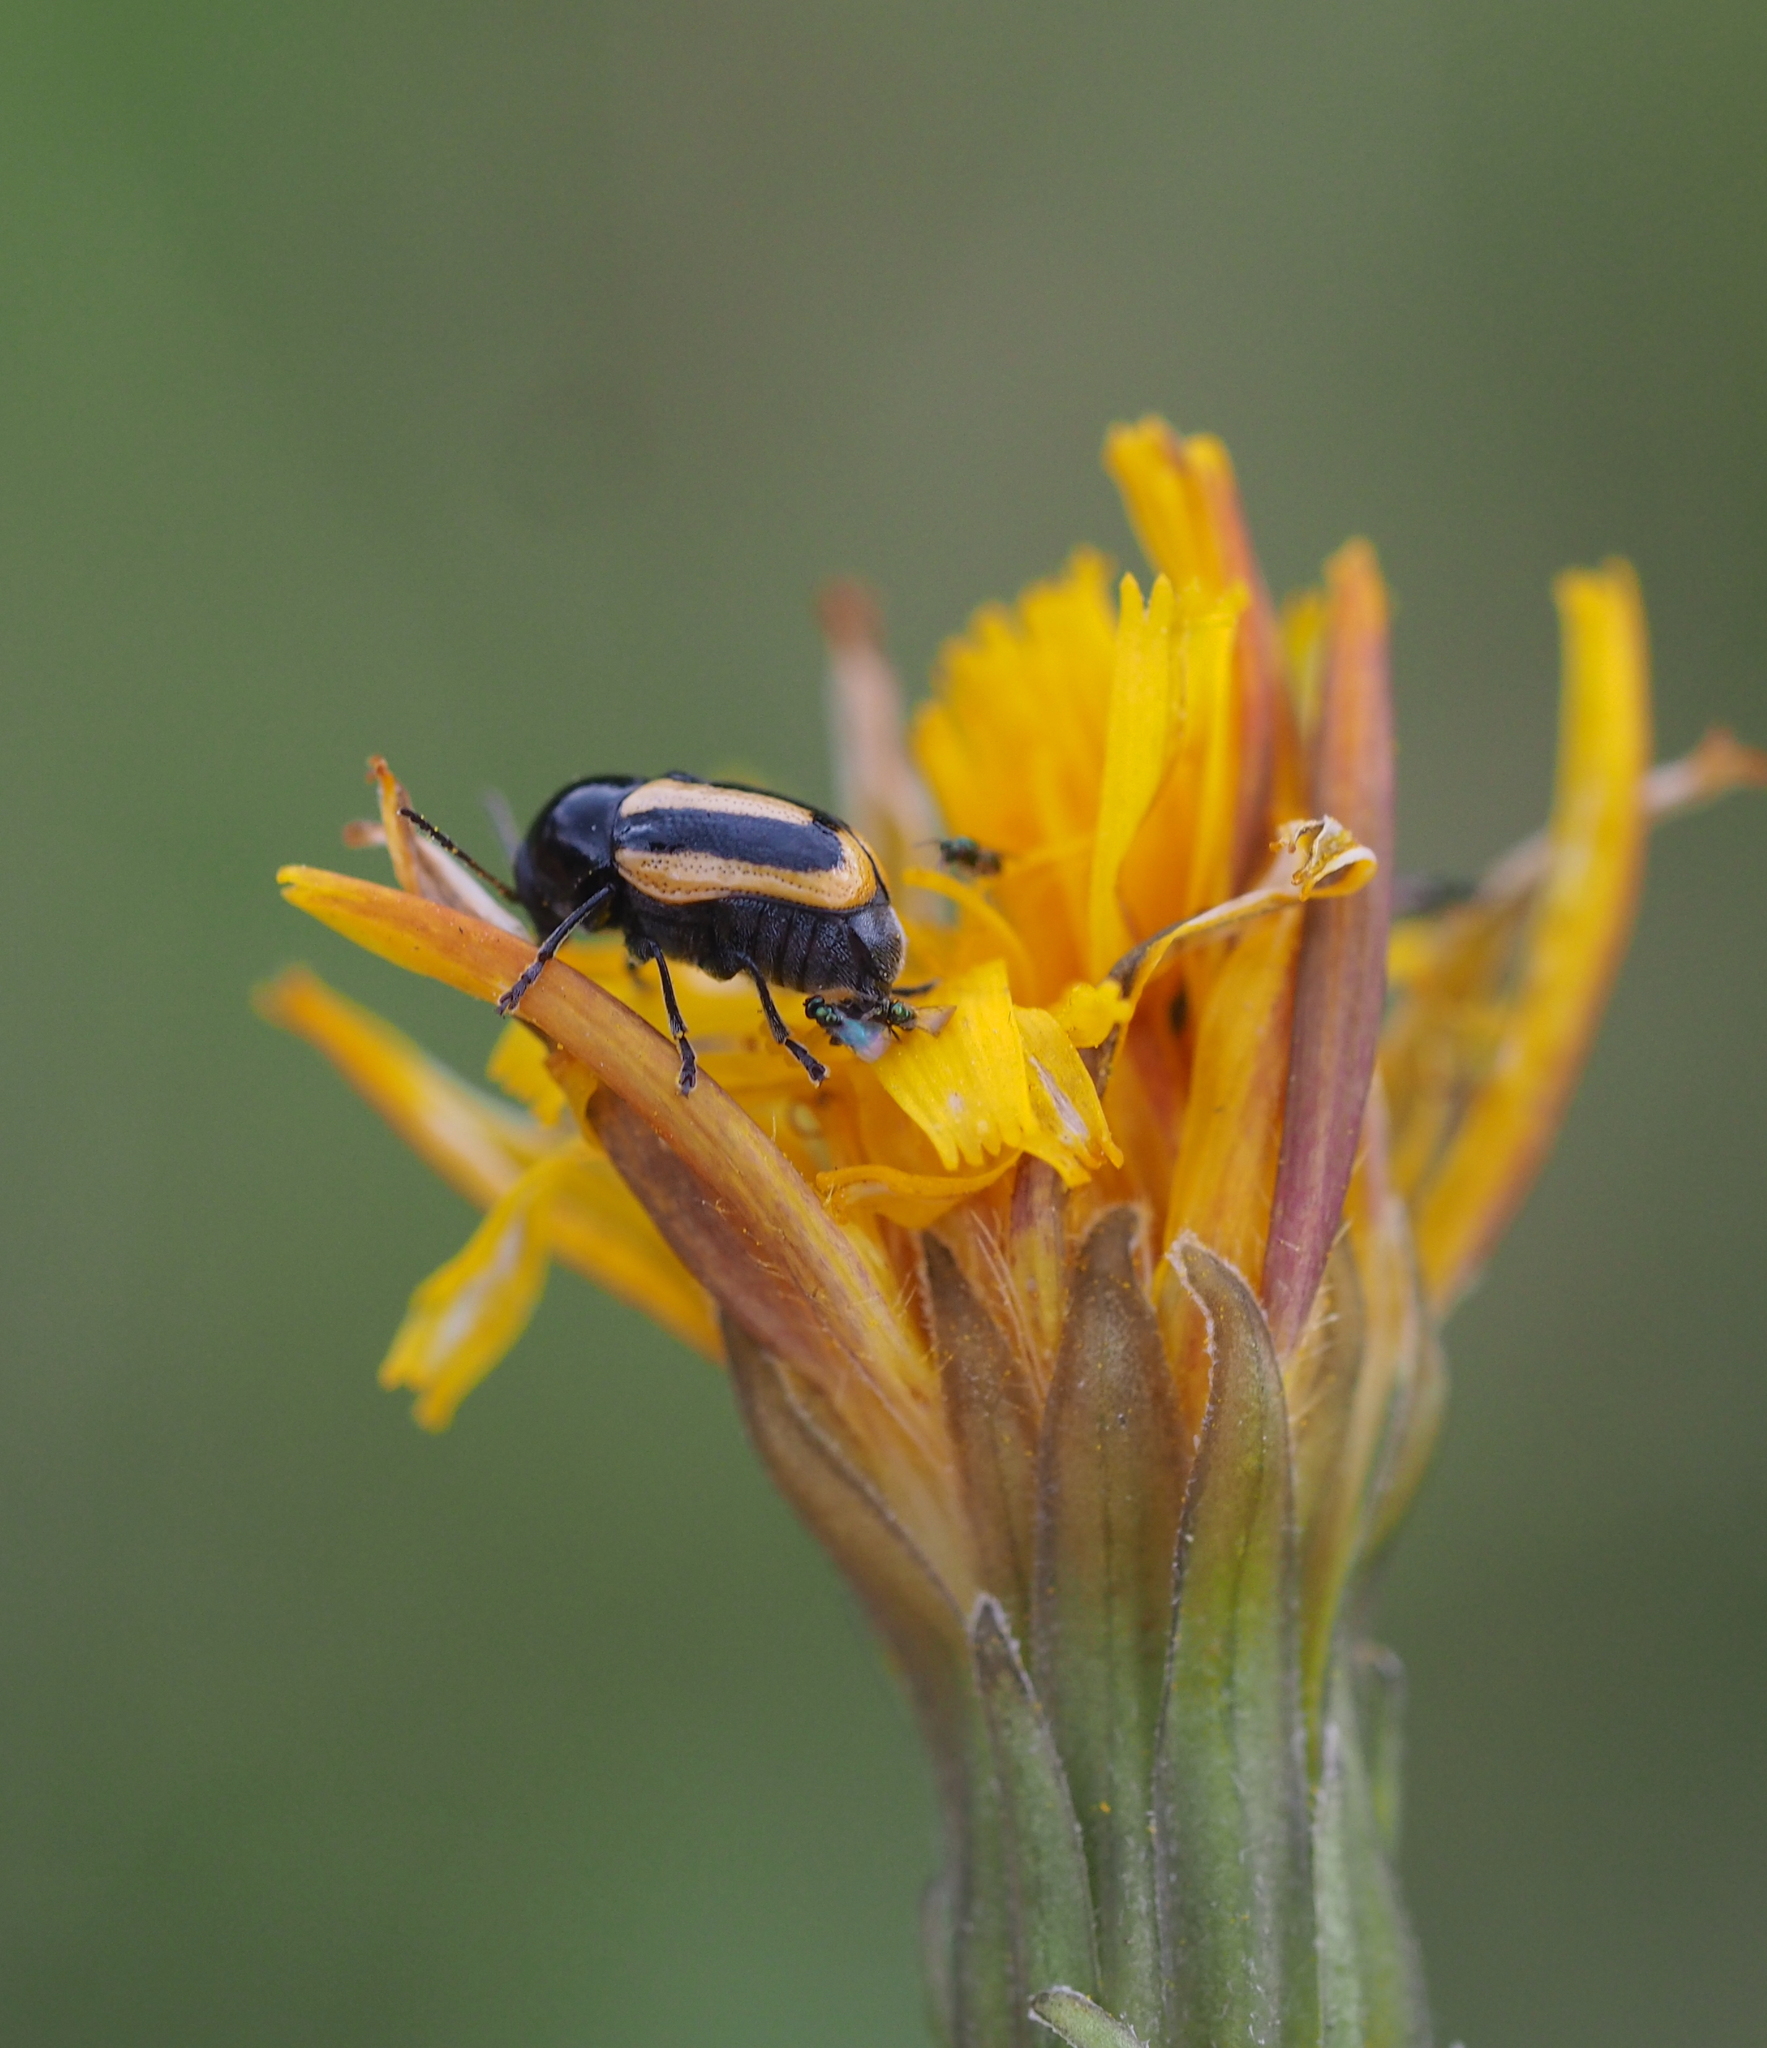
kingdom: Animalia
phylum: Arthropoda
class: Insecta
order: Coleoptera
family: Chrysomelidae
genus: Acalymma
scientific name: Acalymma vittatum
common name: Striped cucumber beetle
